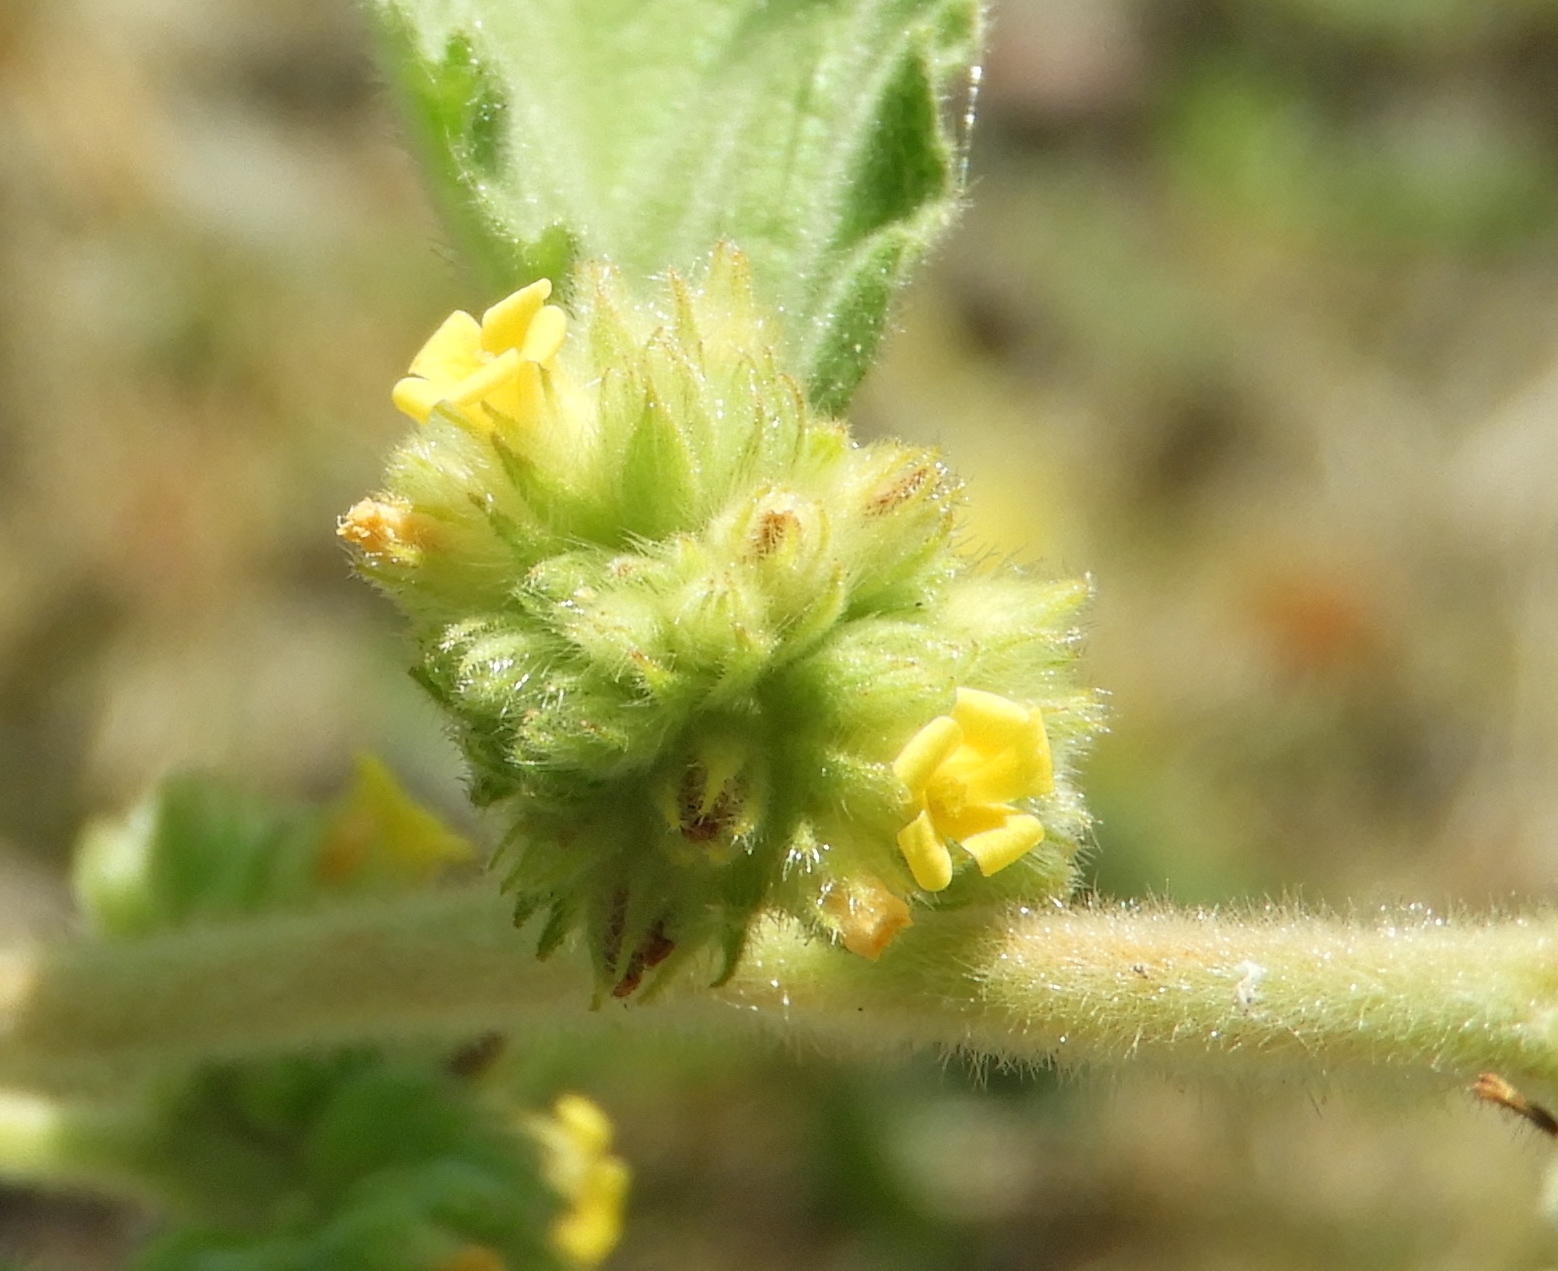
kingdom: Plantae
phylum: Tracheophyta
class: Magnoliopsida
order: Malvales
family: Malvaceae
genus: Waltheria
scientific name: Waltheria indica
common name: Leather-coat
